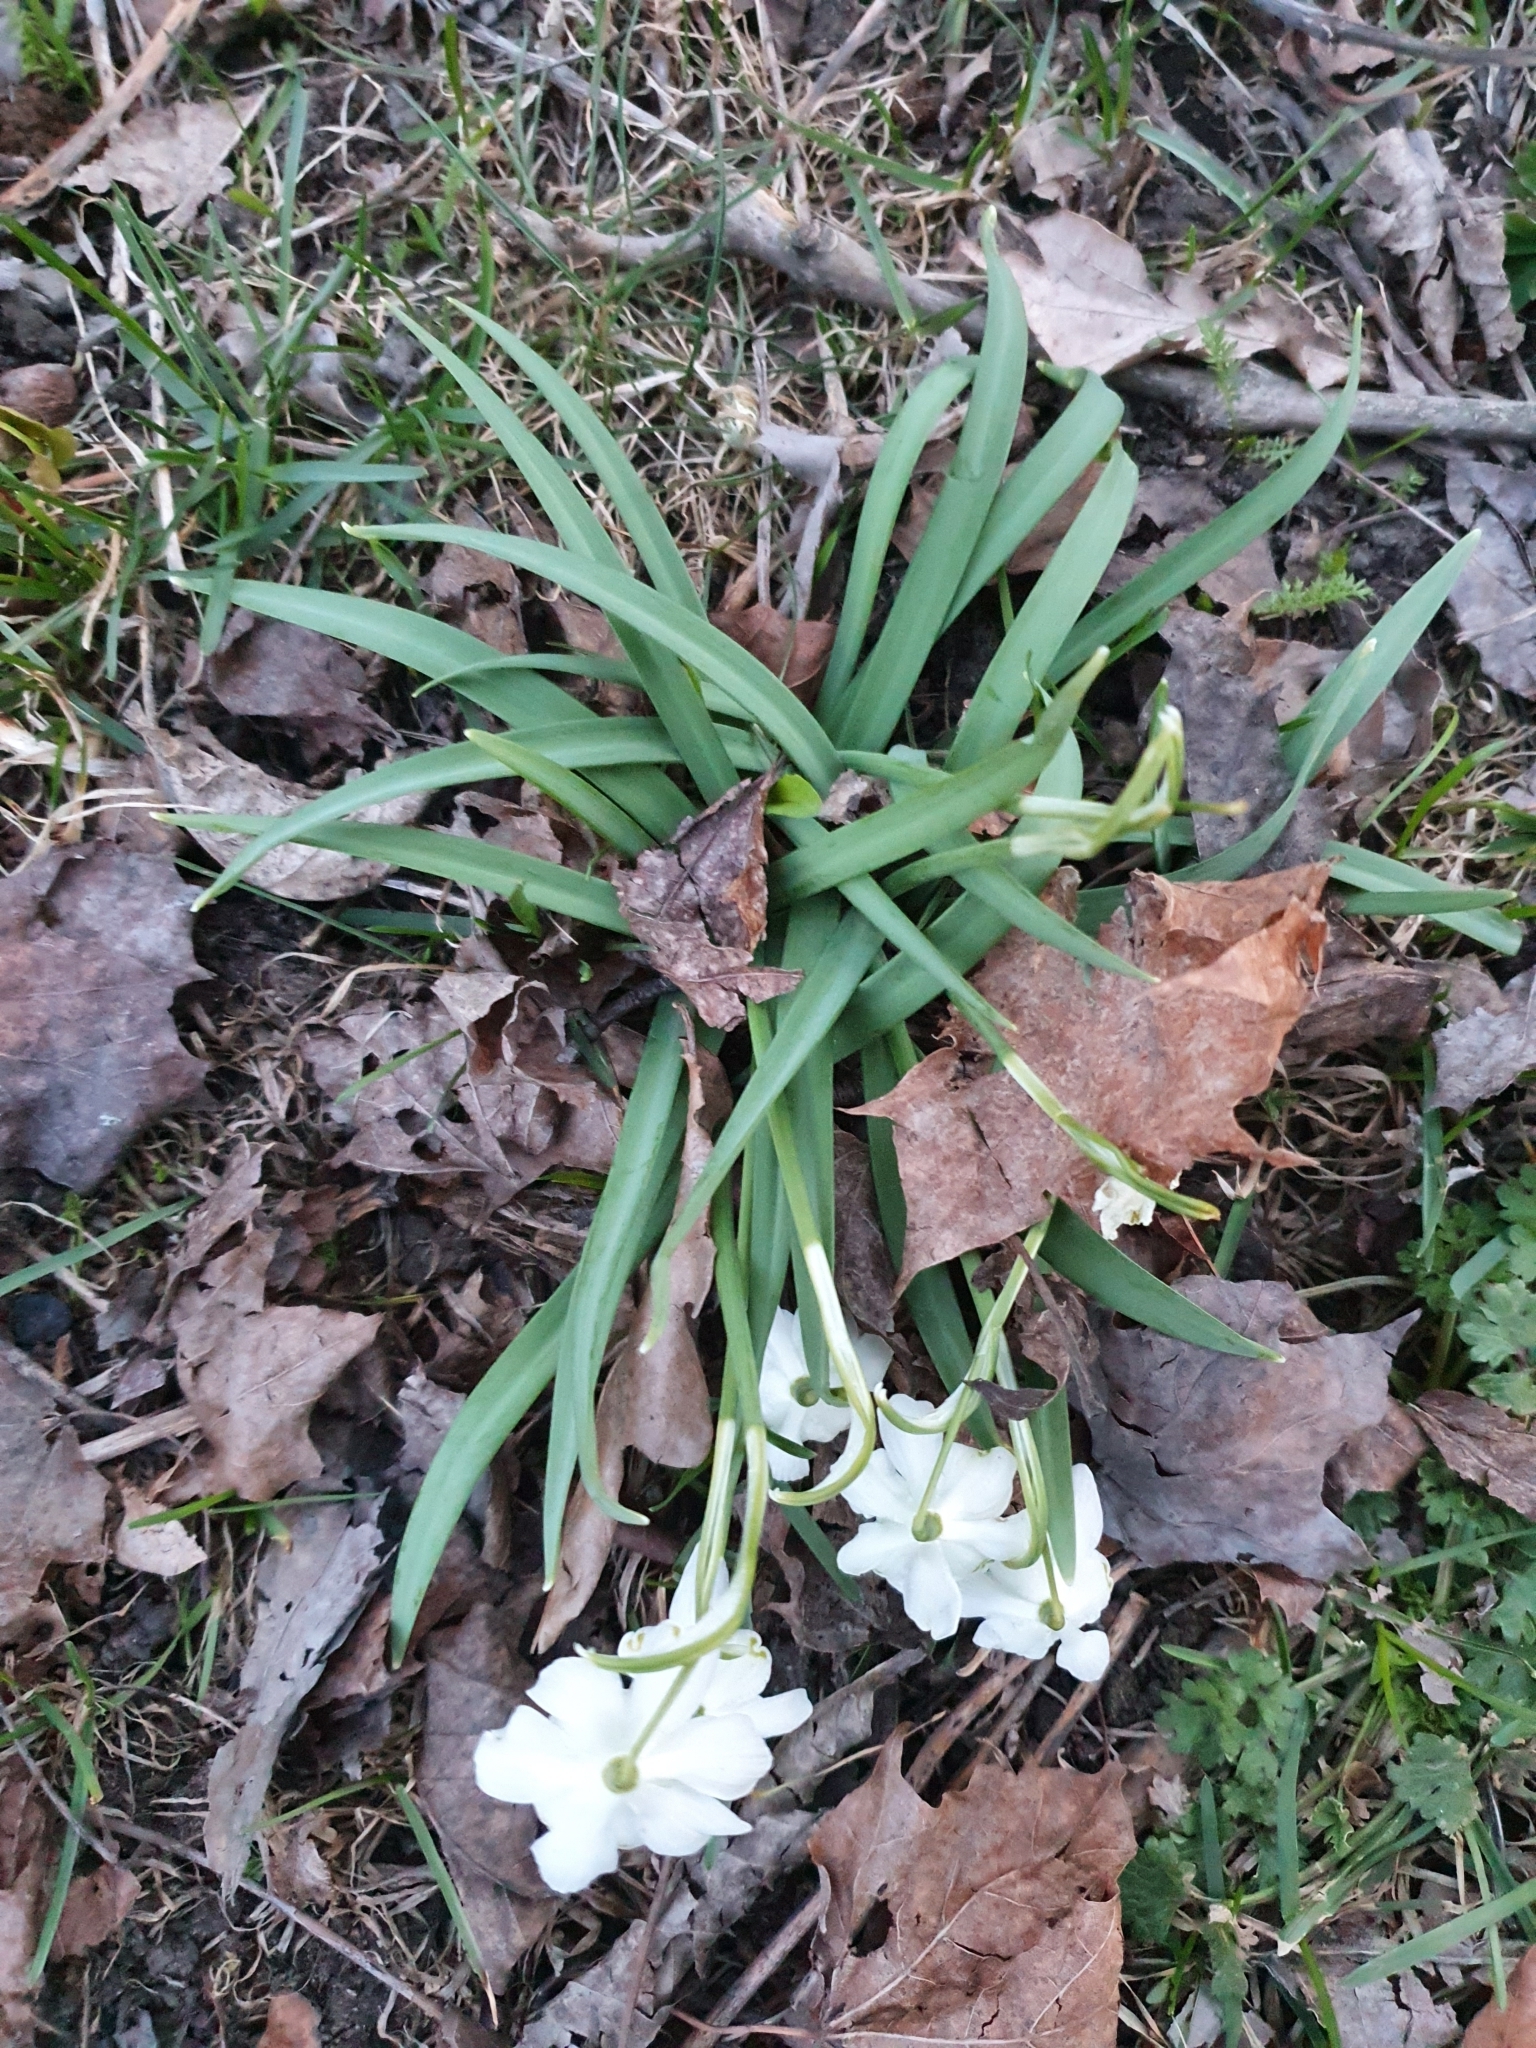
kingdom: Plantae
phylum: Tracheophyta
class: Liliopsida
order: Asparagales
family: Amaryllidaceae
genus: Galanthus
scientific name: Galanthus nivalis
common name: Snowdrop
